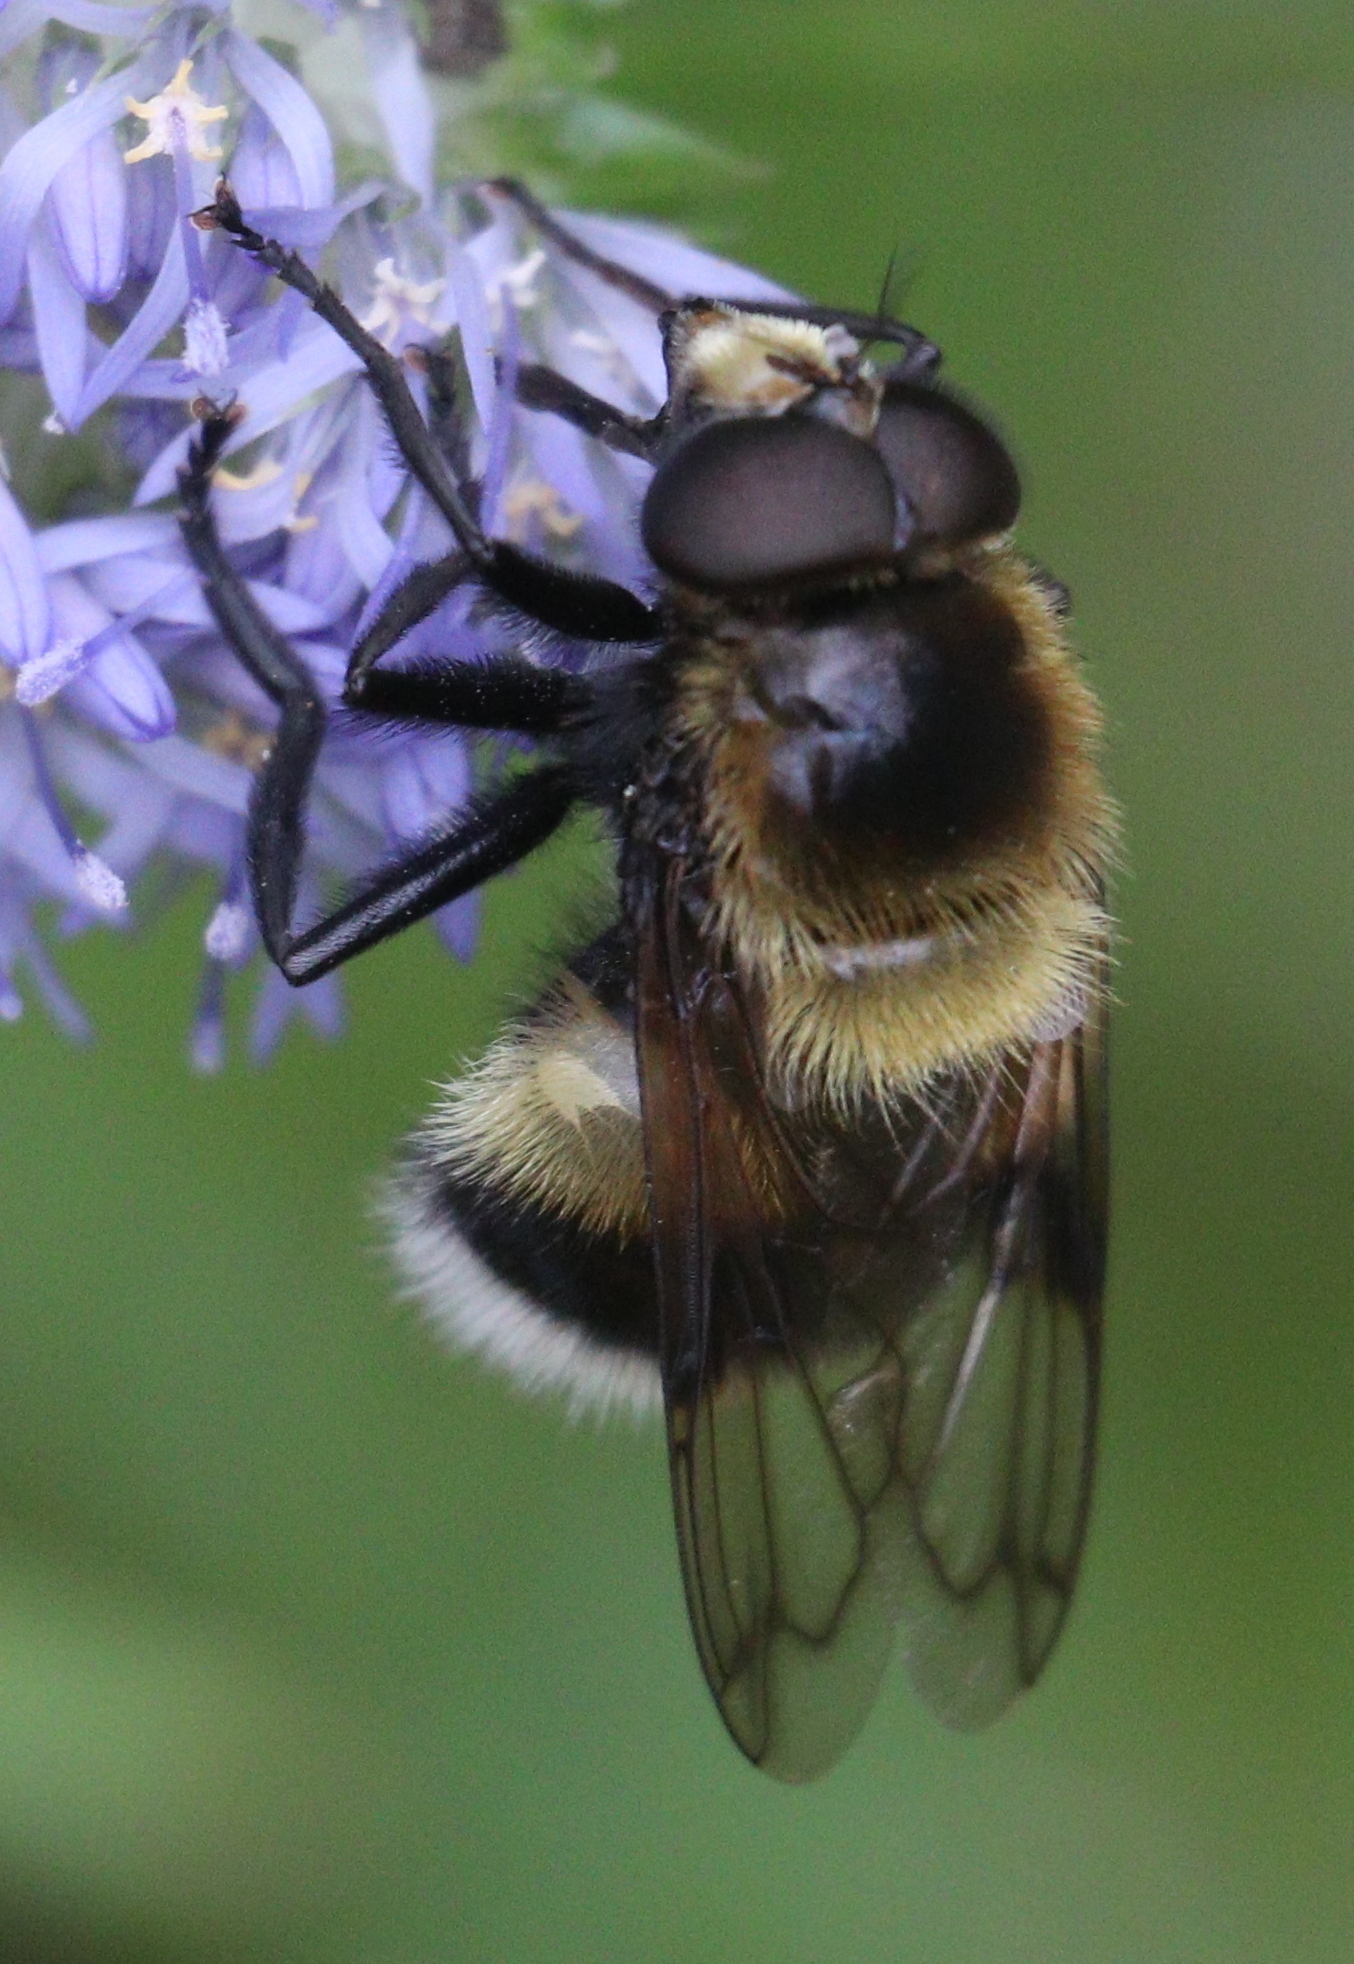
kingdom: Animalia
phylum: Arthropoda
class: Insecta
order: Diptera
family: Syrphidae
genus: Volucella
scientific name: Volucella bombylans
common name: Bumble bee hover fly
